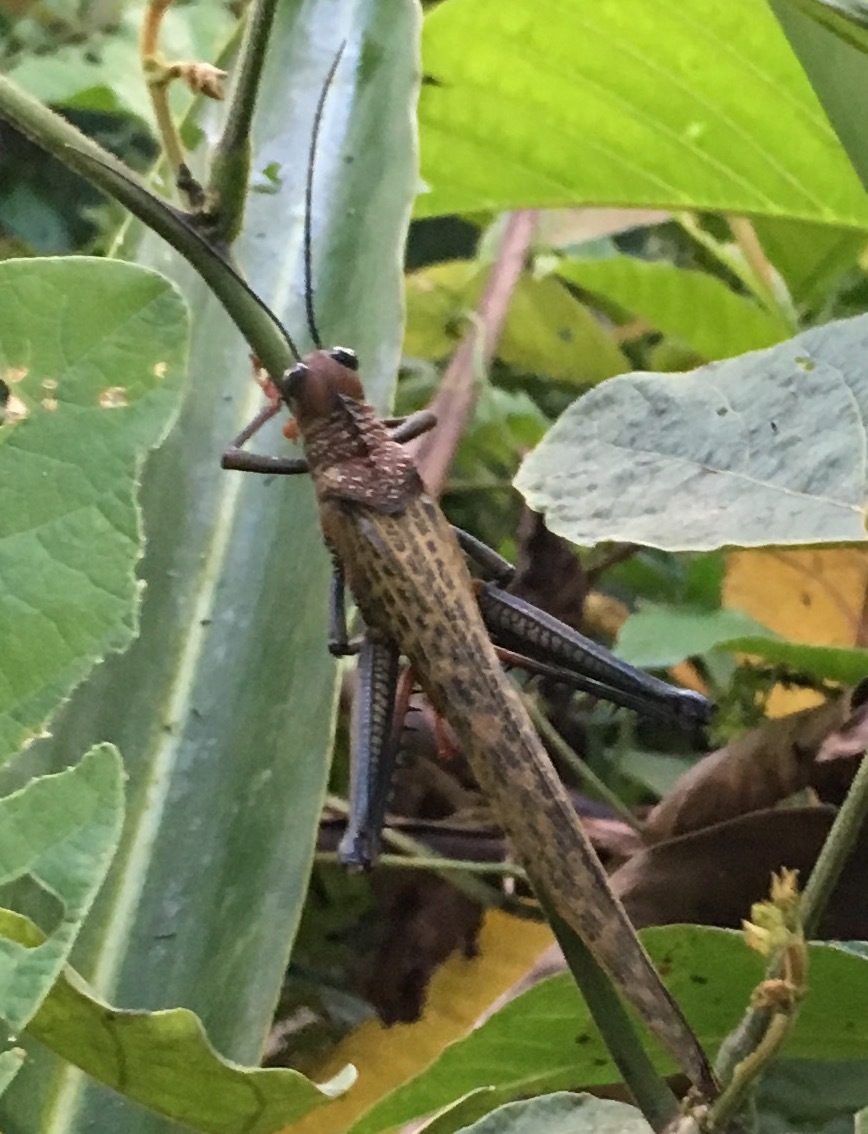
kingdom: Animalia
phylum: Arthropoda
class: Insecta
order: Orthoptera
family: Romaleidae
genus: Tropidacris
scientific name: Tropidacris cristata
